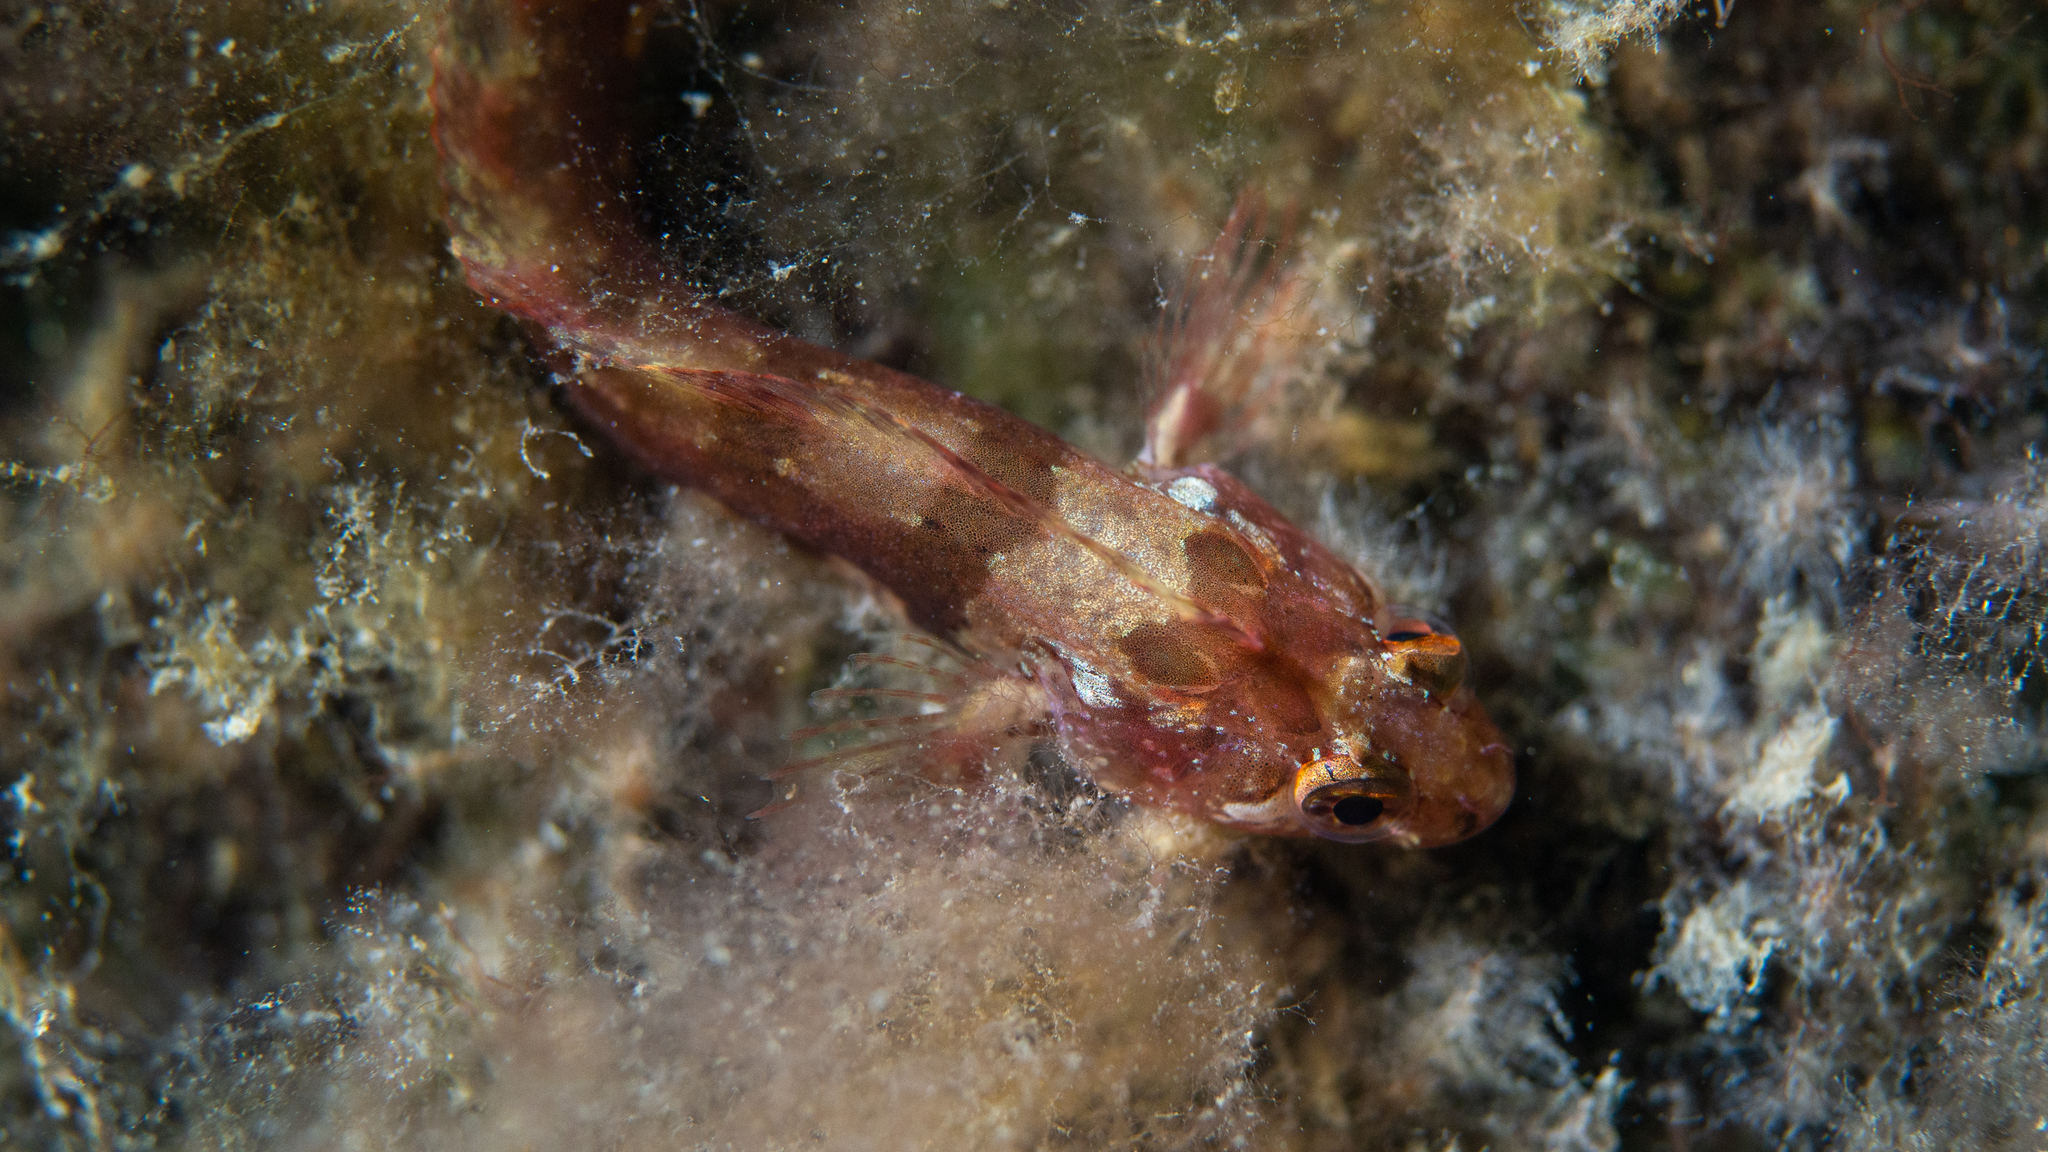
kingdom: Animalia
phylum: Chordata
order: Perciformes
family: Clinidae
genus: Heteroclinus
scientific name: Heteroclinus heptaeolus
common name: Seven-bar weedfish
